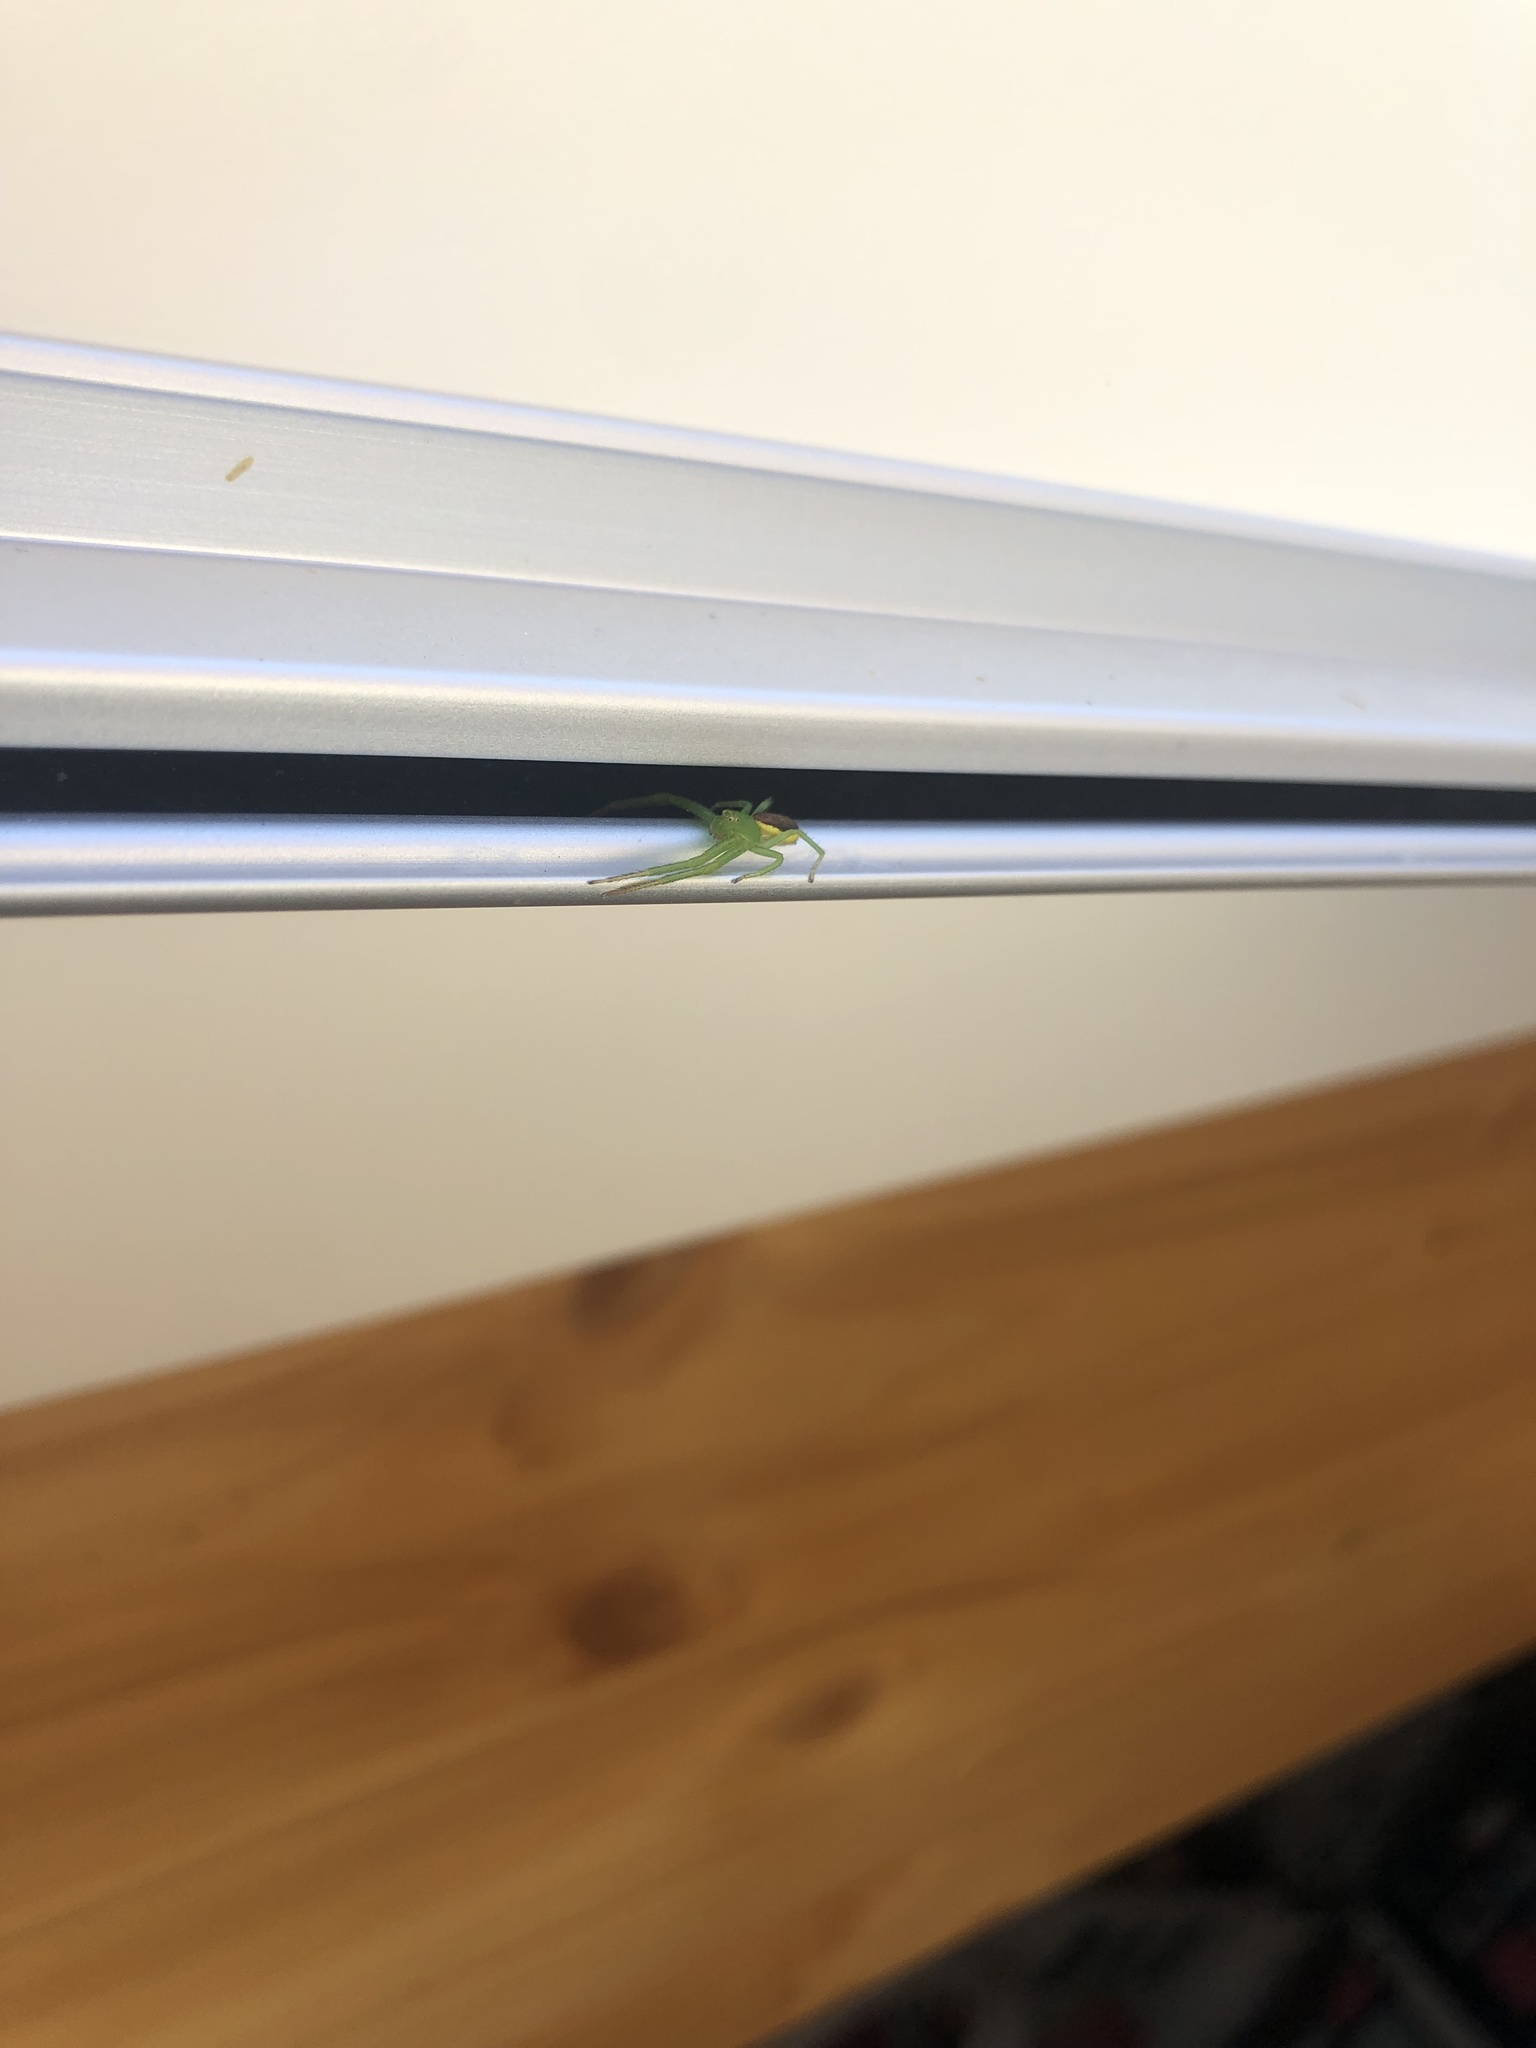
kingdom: Animalia
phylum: Arthropoda
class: Arachnida
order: Araneae
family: Thomisidae
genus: Diaea
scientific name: Diaea dorsata
